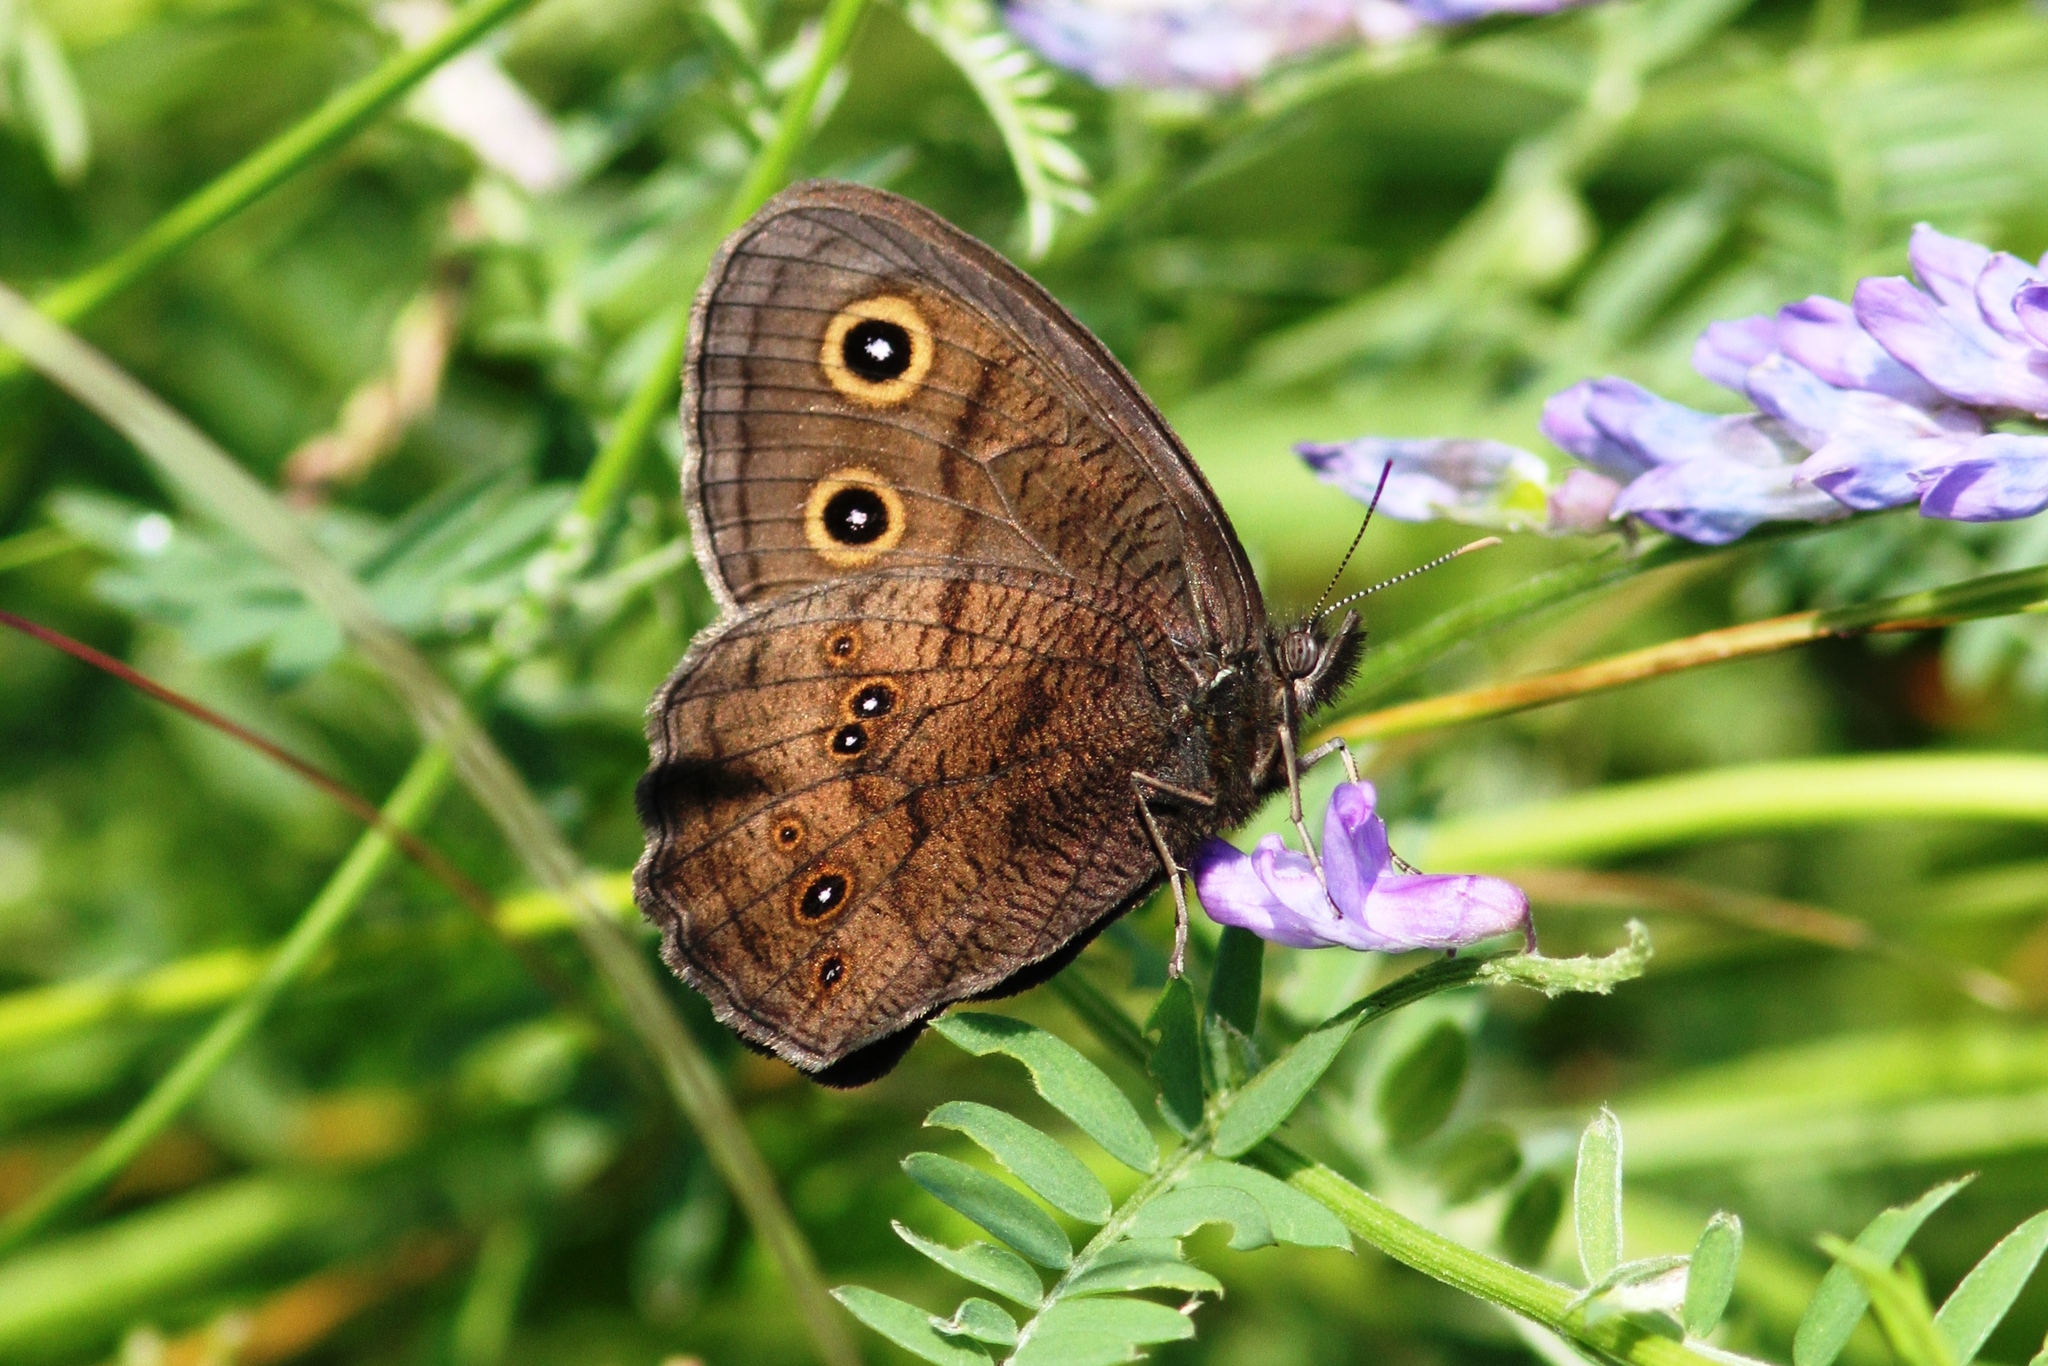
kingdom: Animalia
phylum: Arthropoda
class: Insecta
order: Lepidoptera
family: Nymphalidae
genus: Cercyonis
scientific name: Cercyonis pegala
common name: Common wood-nymph
